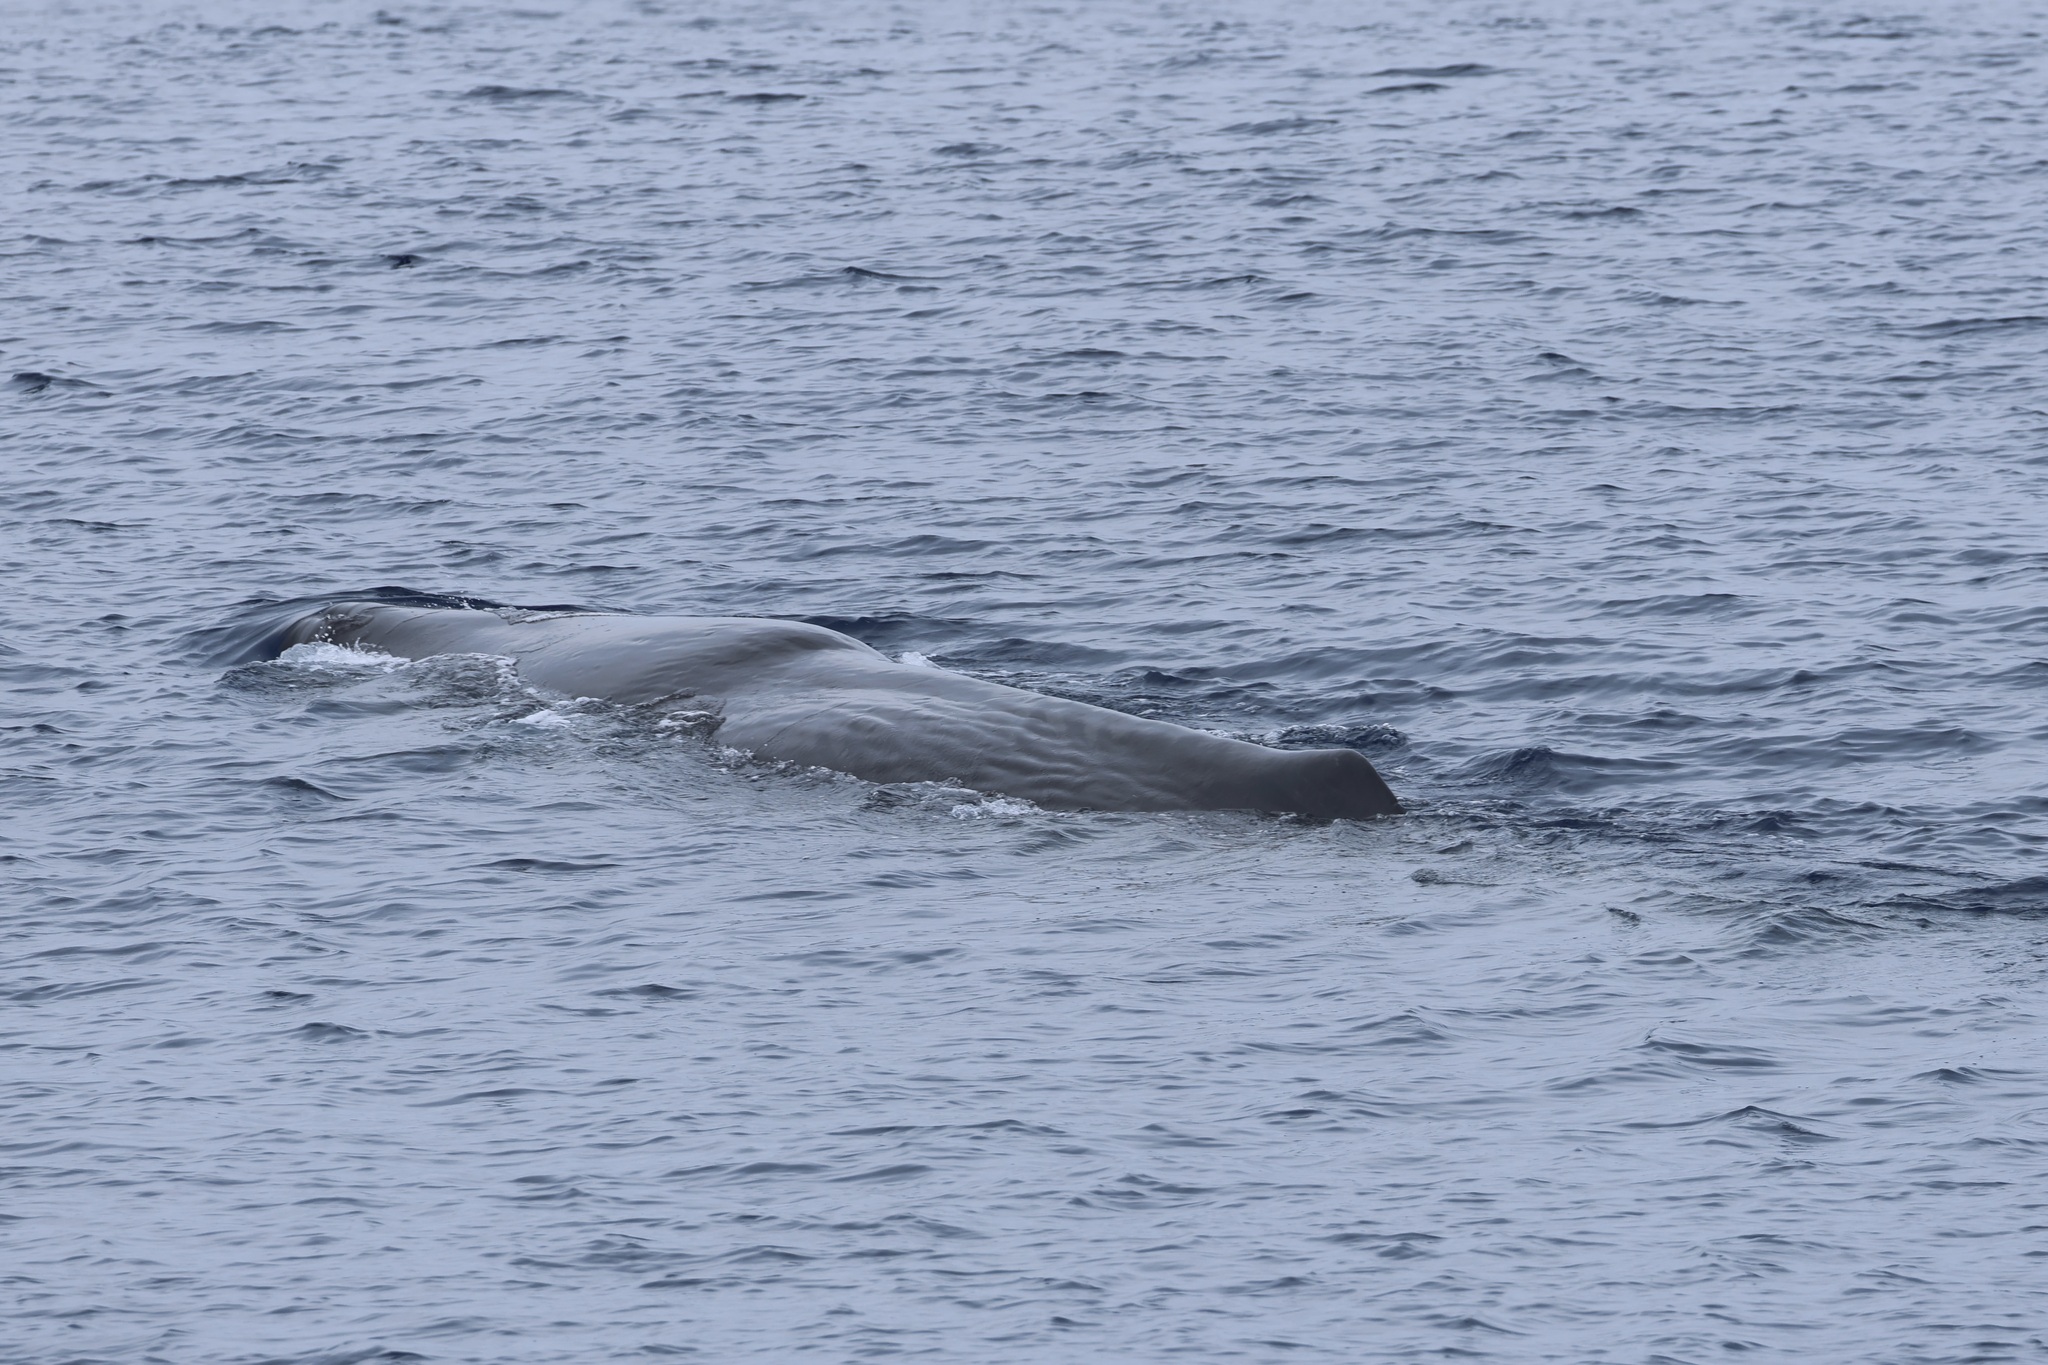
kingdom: Animalia
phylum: Chordata
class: Mammalia
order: Cetacea
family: Physeteridae
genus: Physeter
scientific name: Physeter macrocephalus
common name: Sperm whale
